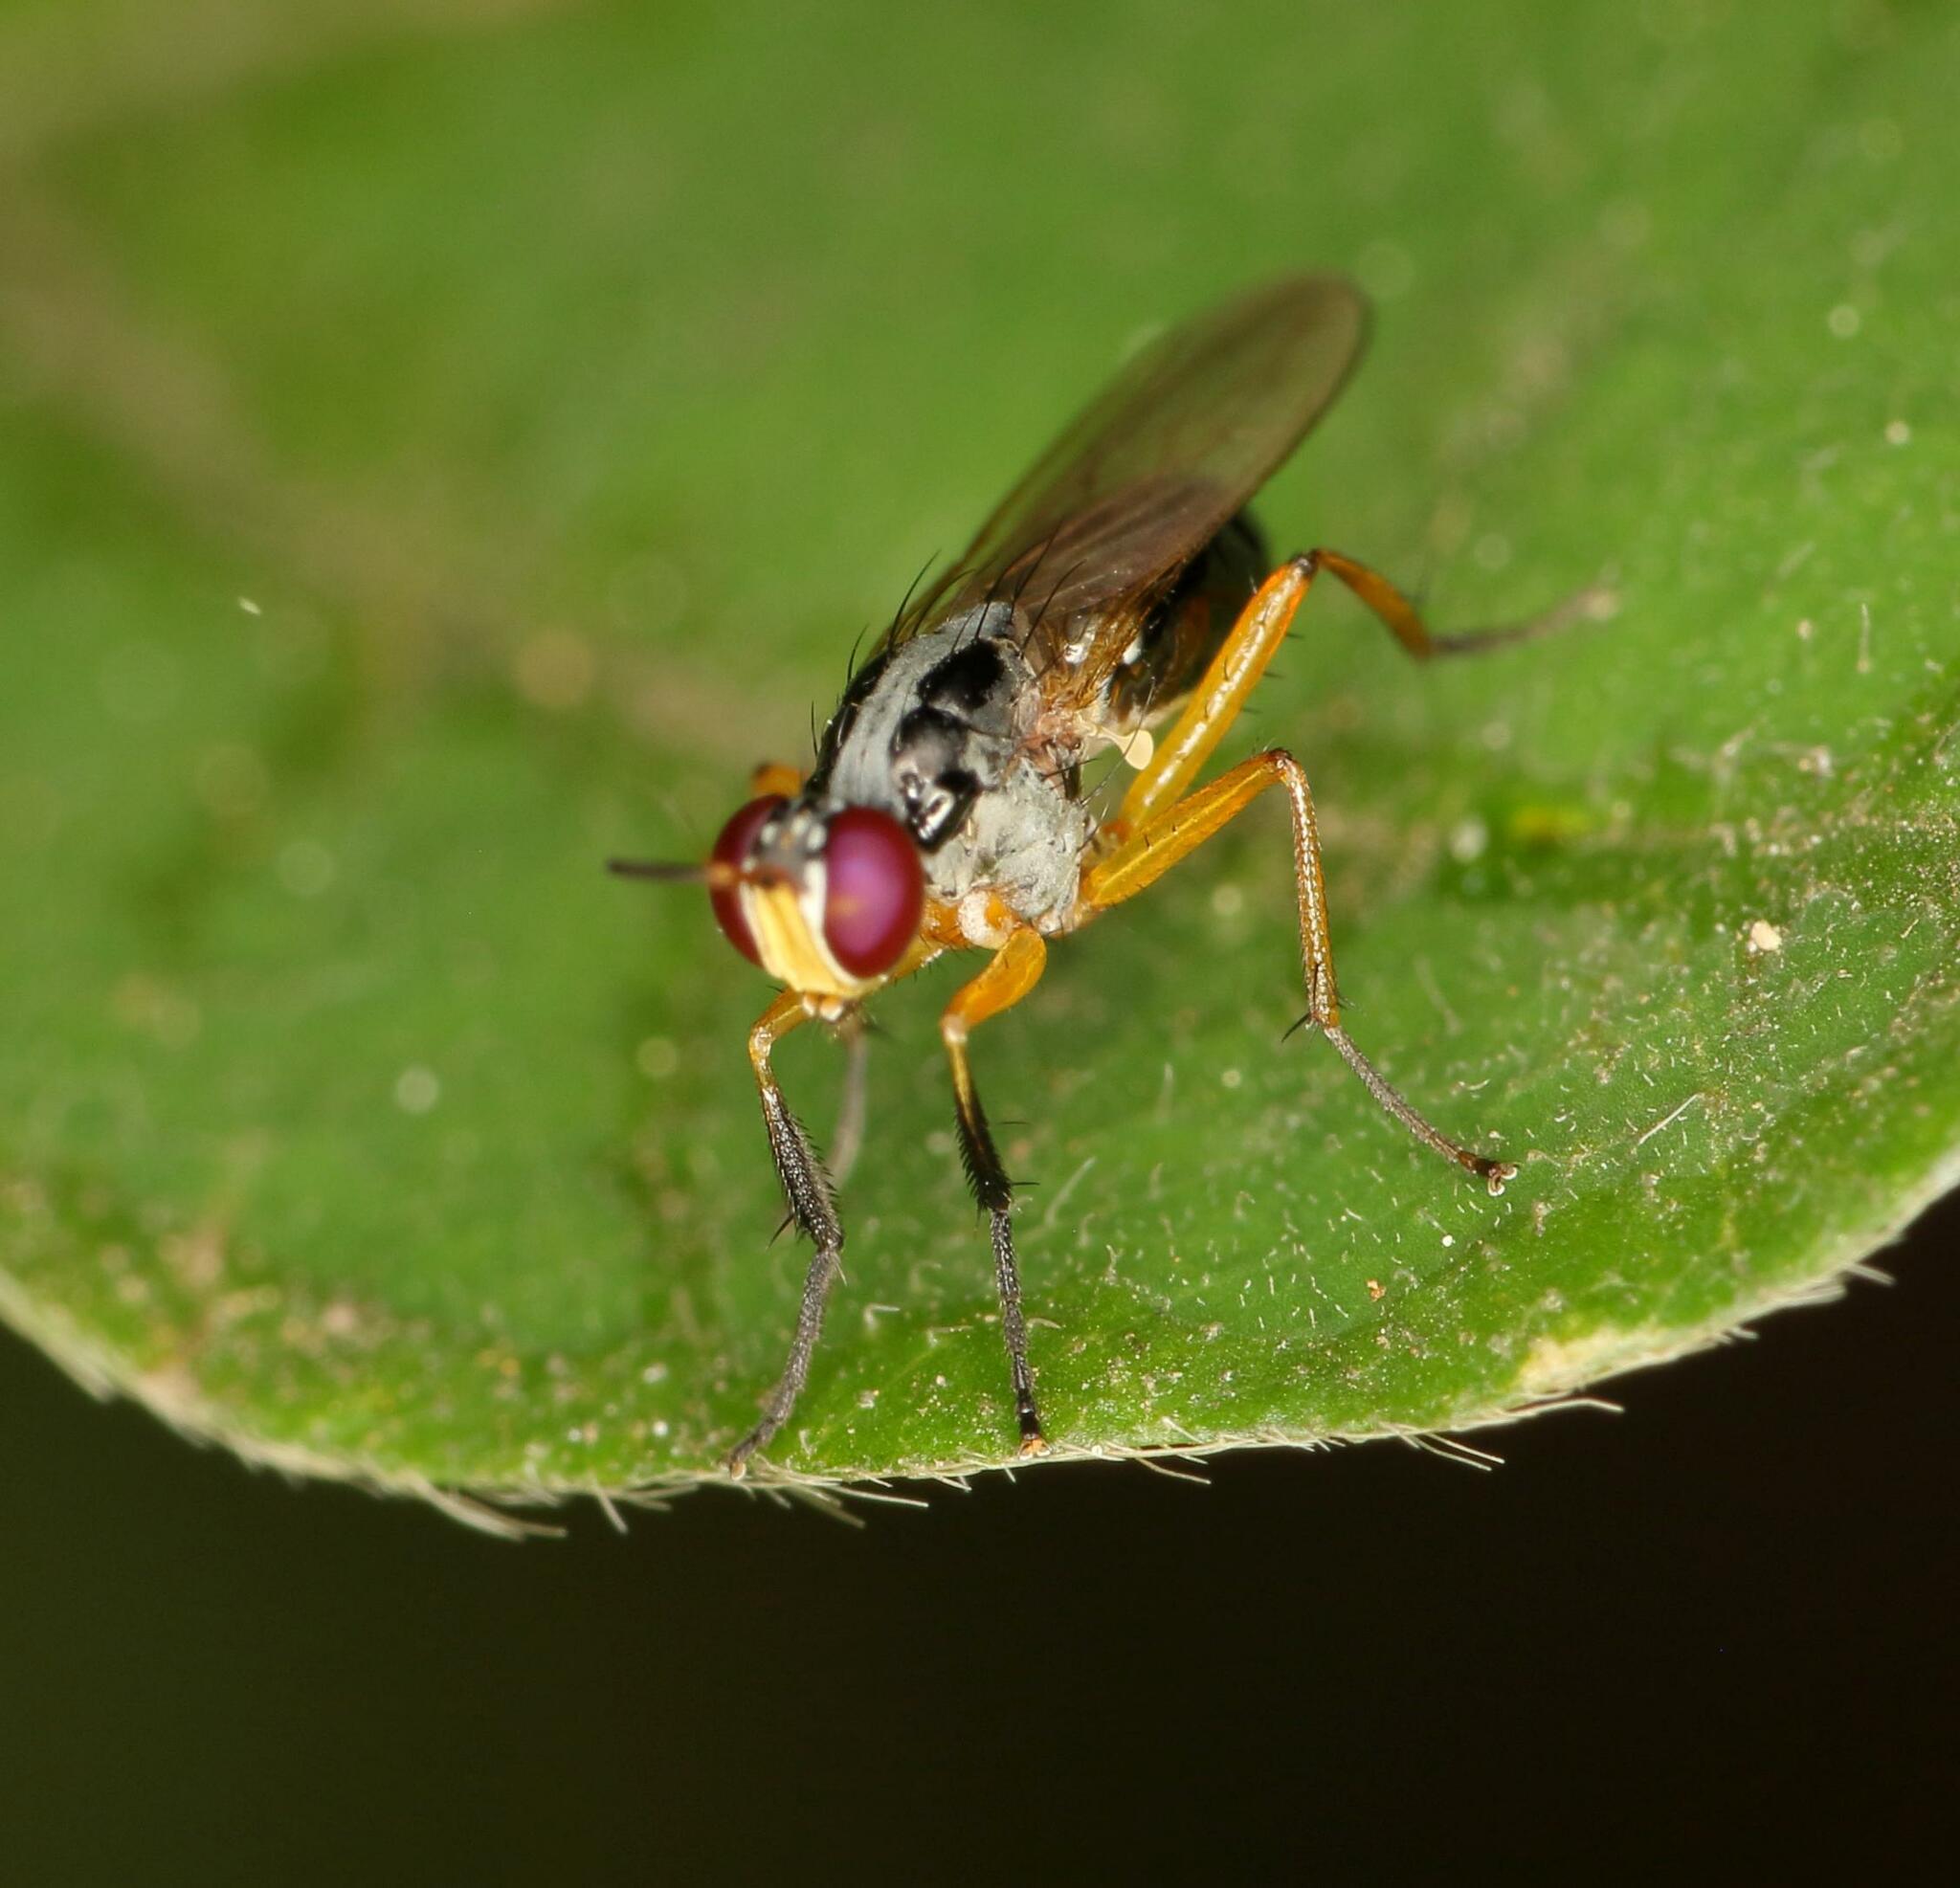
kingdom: Animalia
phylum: Arthropoda
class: Insecta
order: Diptera
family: Muscidae
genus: Anaphalantus
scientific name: Anaphalantus longicornis
